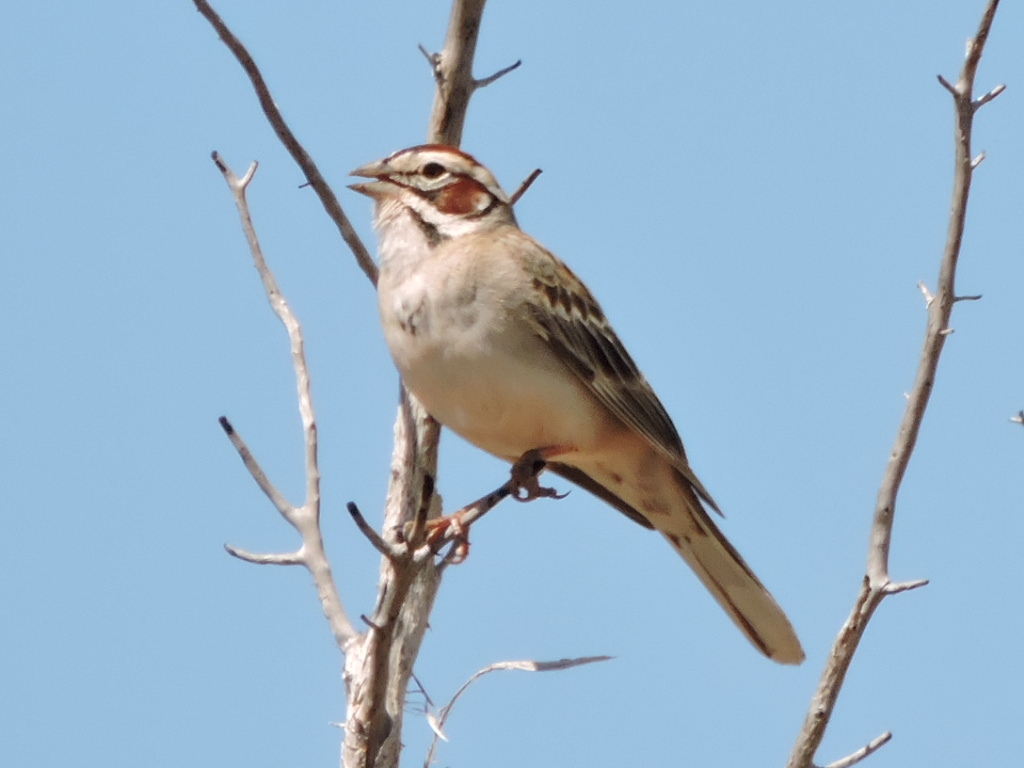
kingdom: Animalia
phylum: Chordata
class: Aves
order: Passeriformes
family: Passerellidae
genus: Chondestes
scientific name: Chondestes grammacus
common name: Lark sparrow
